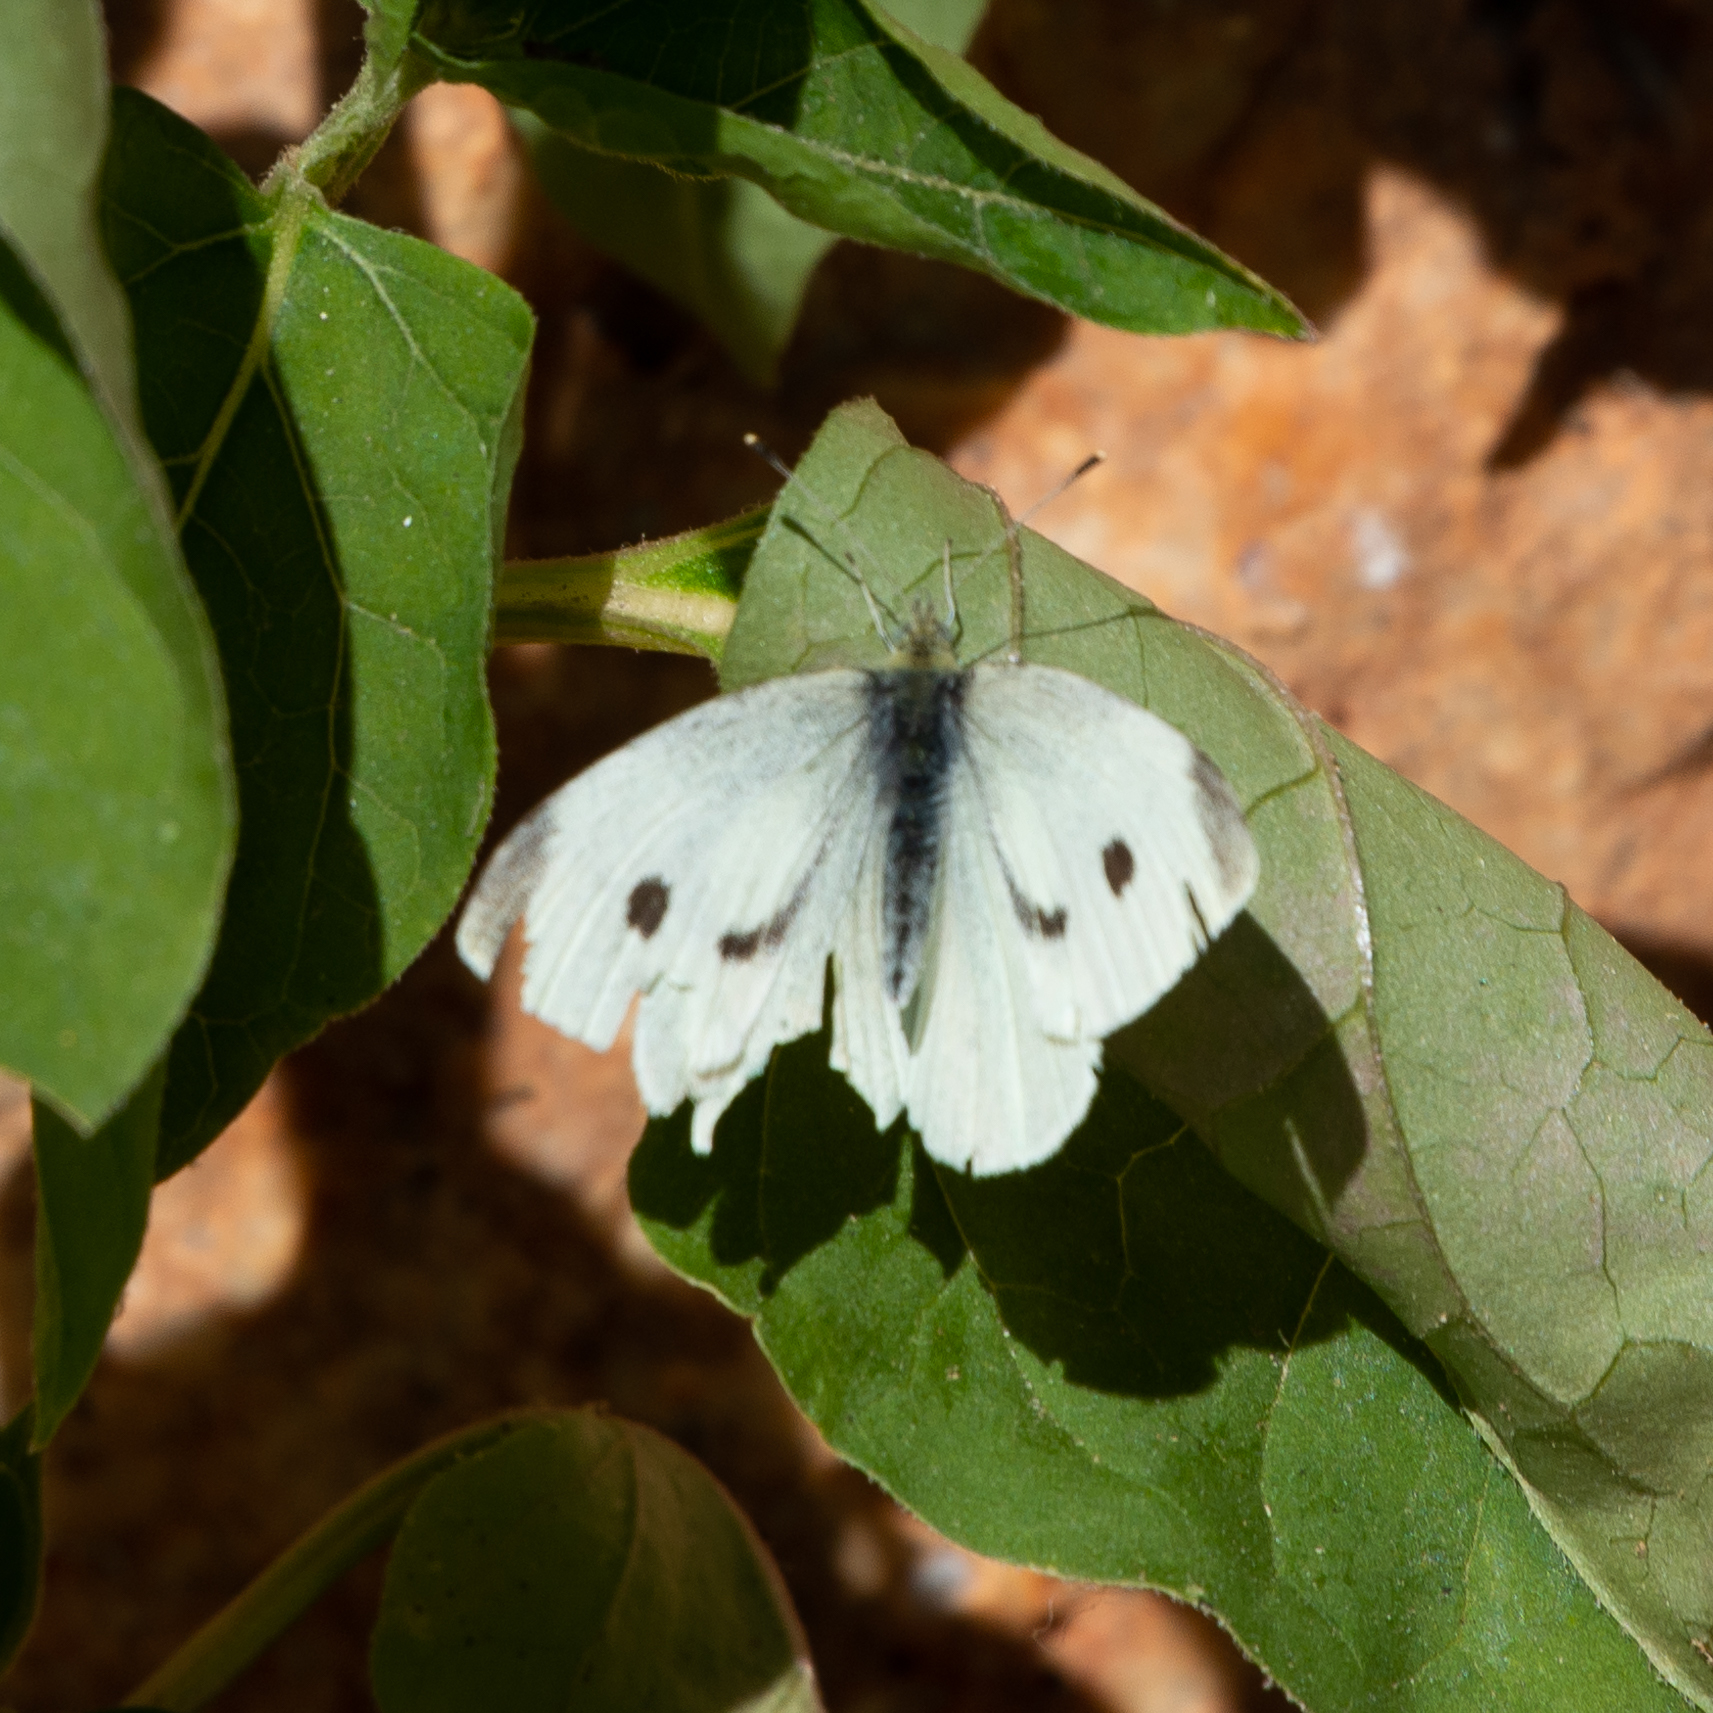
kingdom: Animalia
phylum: Arthropoda
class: Insecta
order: Lepidoptera
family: Pieridae
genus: Pieris
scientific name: Pieris rapae
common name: Small white
